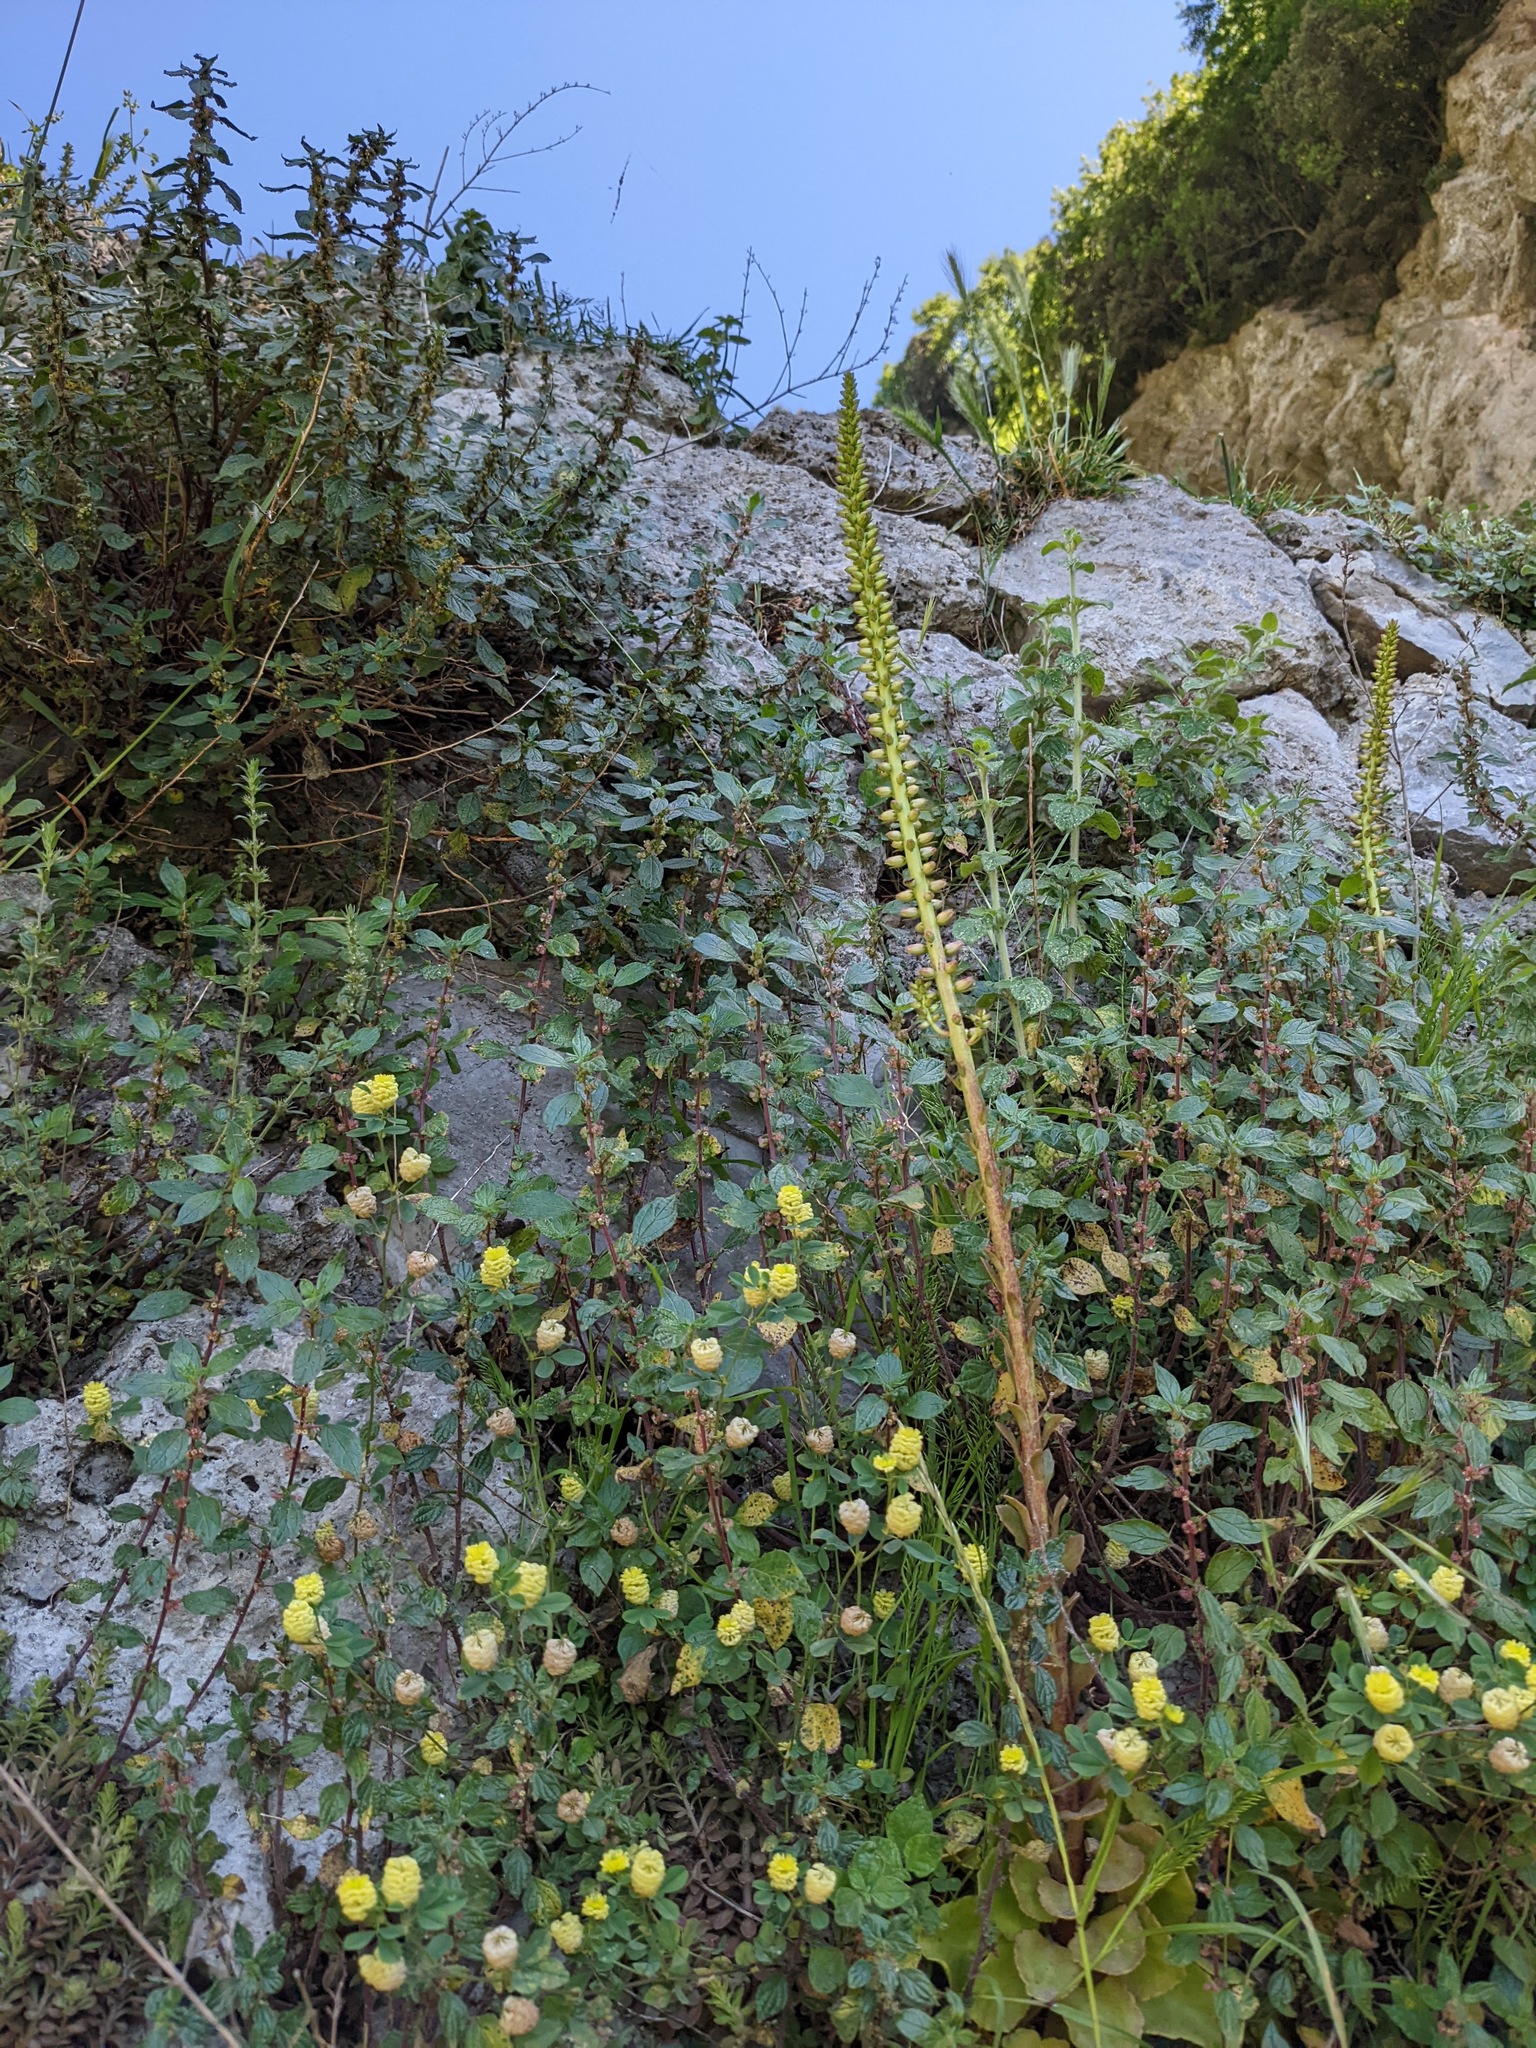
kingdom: Plantae
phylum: Tracheophyta
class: Magnoliopsida
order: Saxifragales
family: Crassulaceae
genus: Umbilicus
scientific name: Umbilicus rupestris
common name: Navelwort
